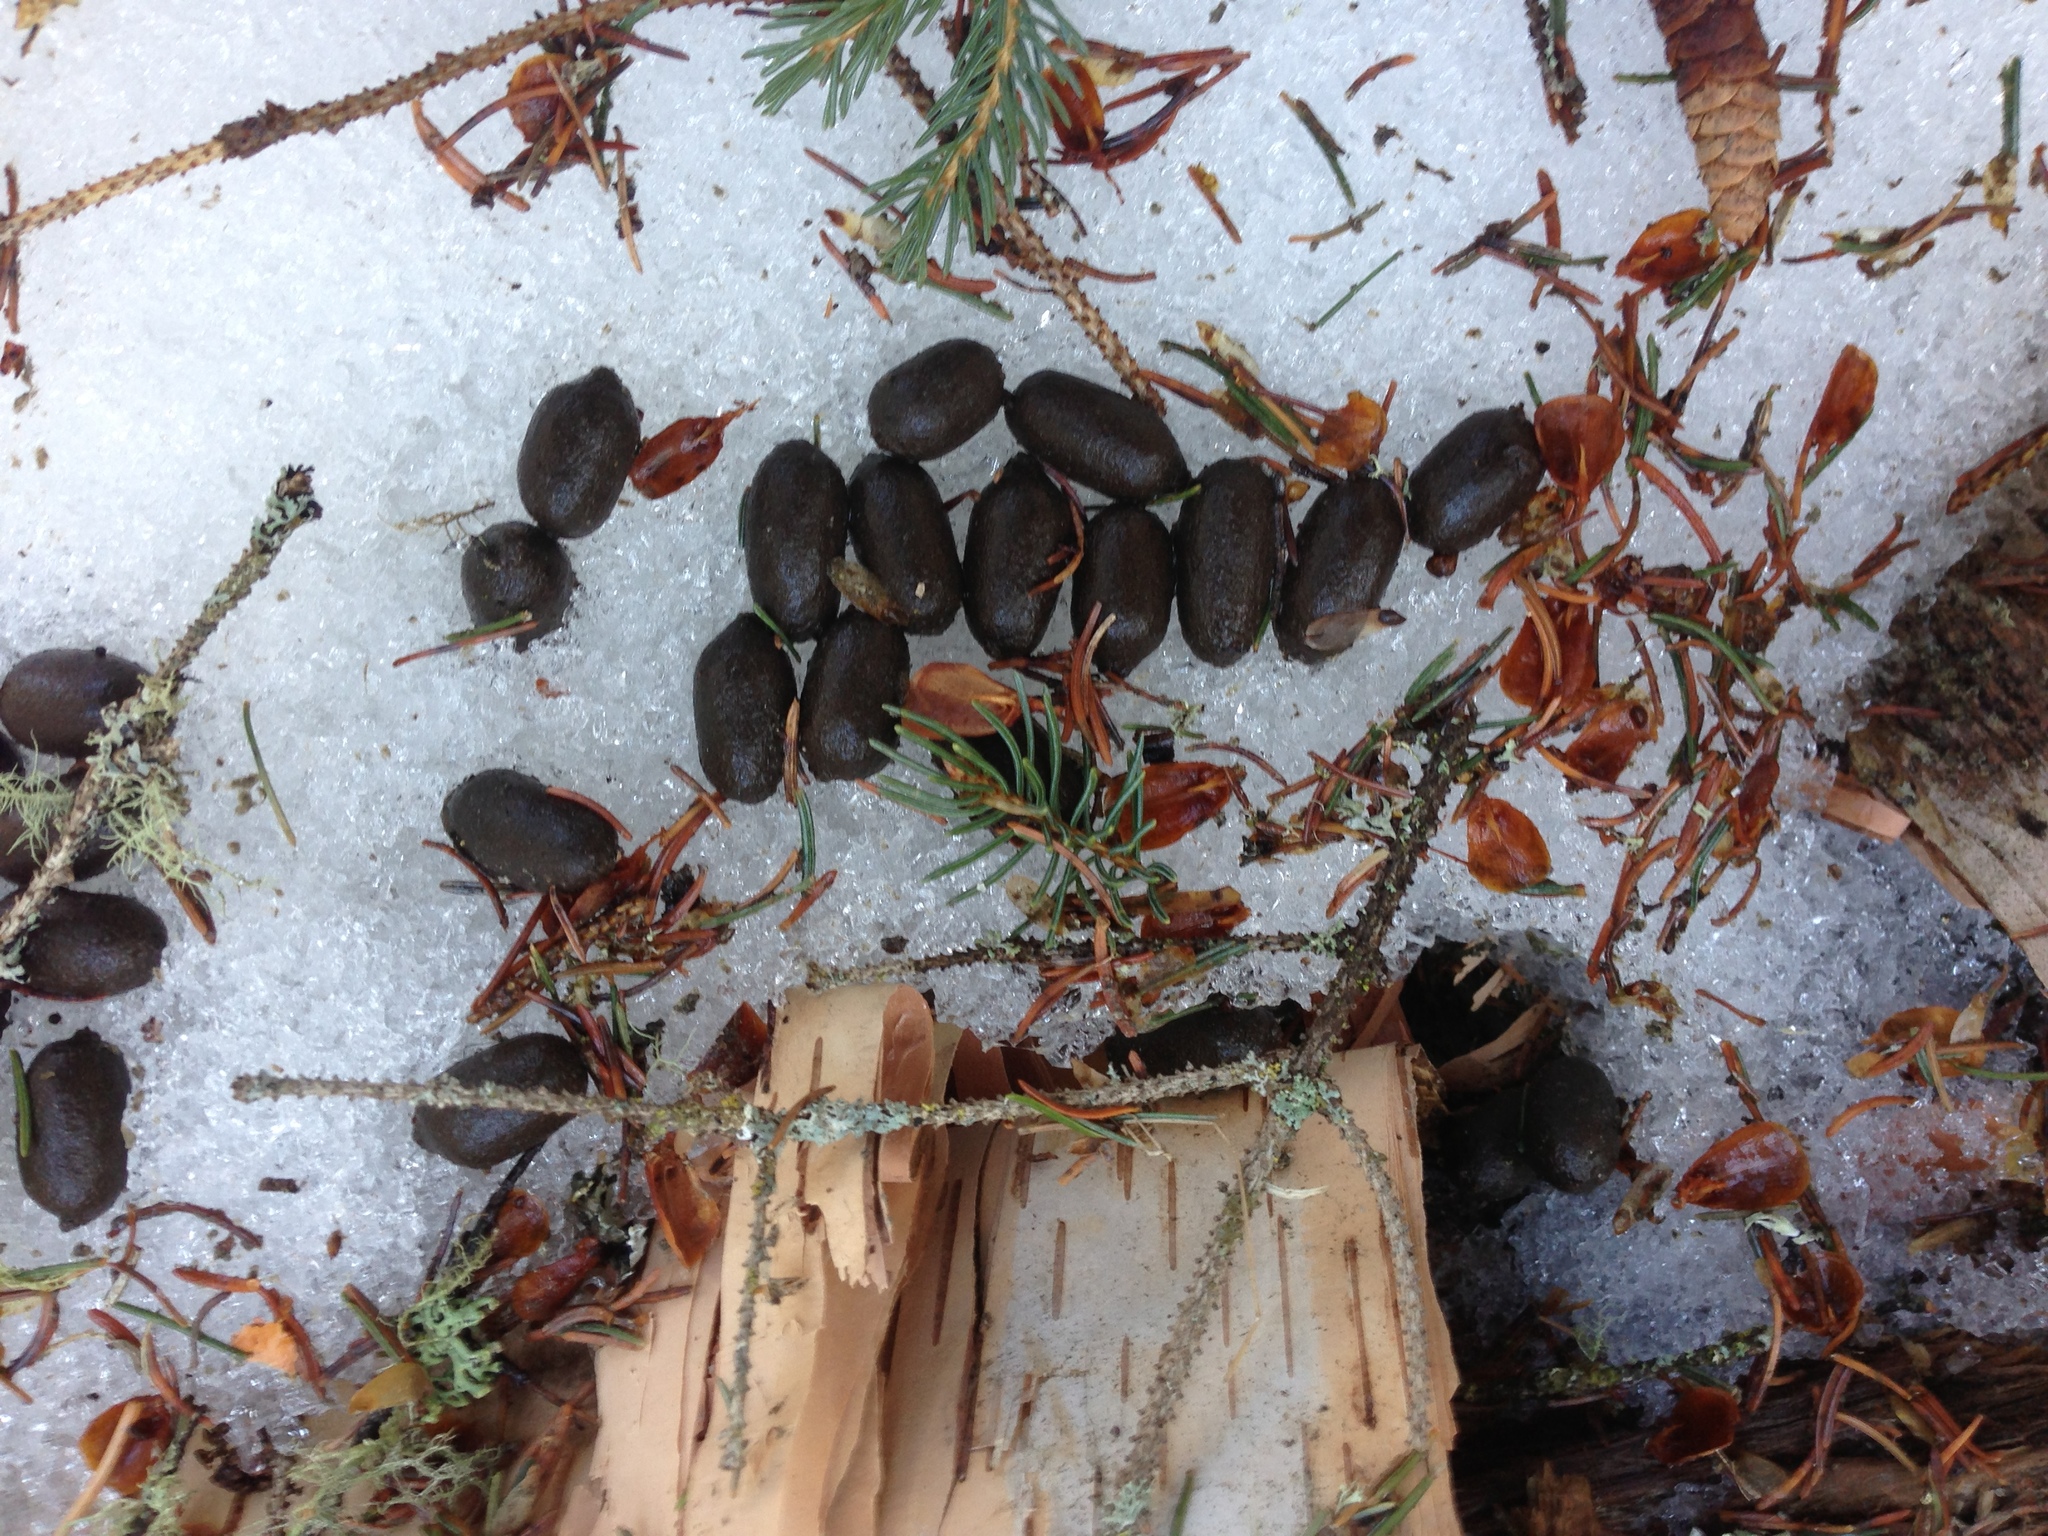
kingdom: Animalia
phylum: Chordata
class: Mammalia
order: Artiodactyla
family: Cervidae
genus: Odocoileus
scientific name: Odocoileus virginianus
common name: White-tailed deer
